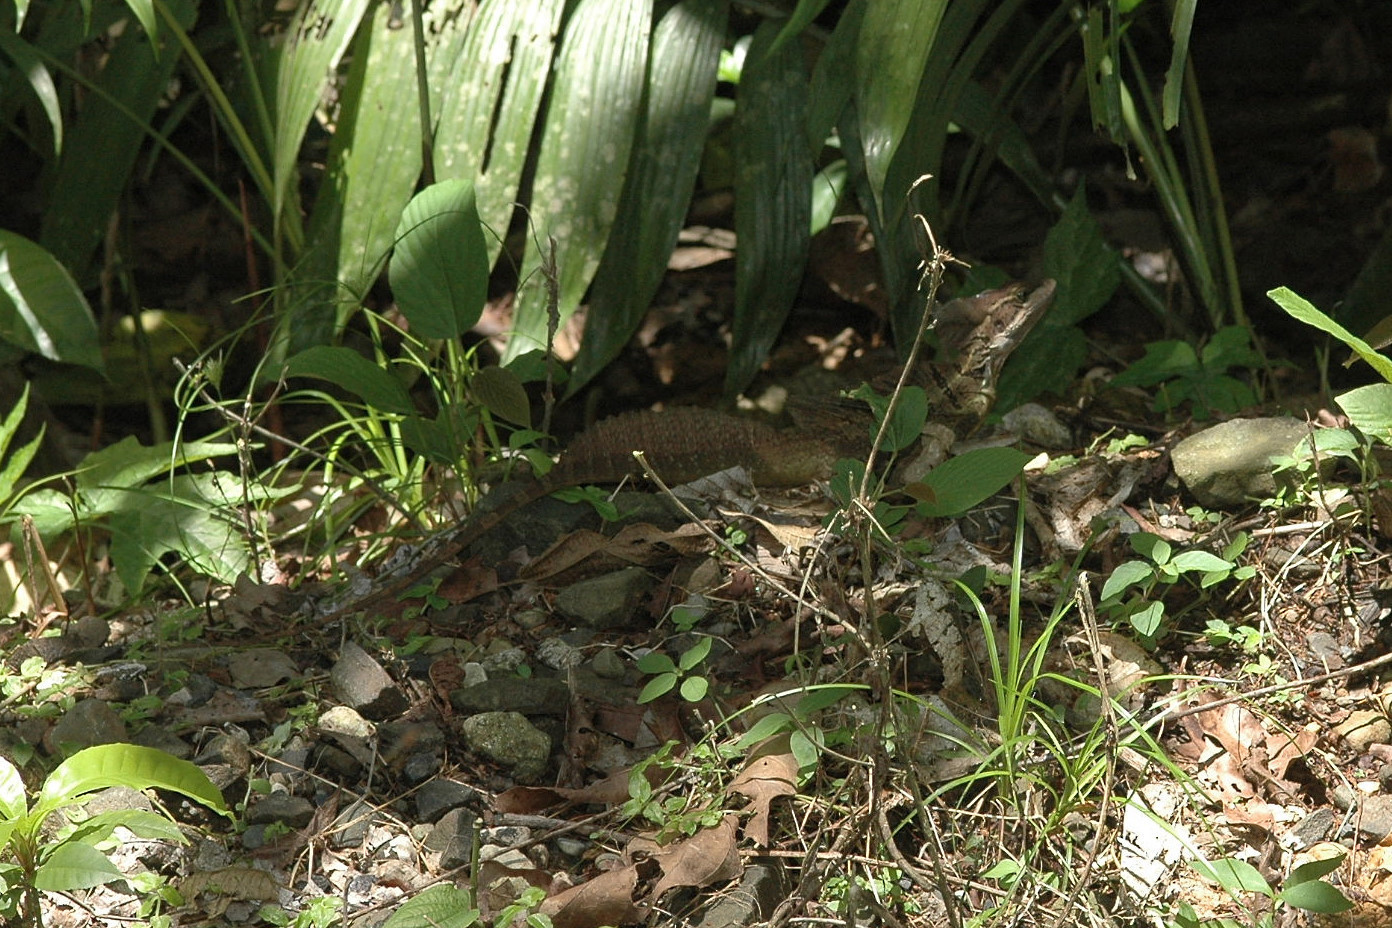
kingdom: Animalia
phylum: Chordata
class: Squamata
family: Corytophanidae
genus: Basiliscus
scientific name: Basiliscus basiliscus
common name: Common basilisk
